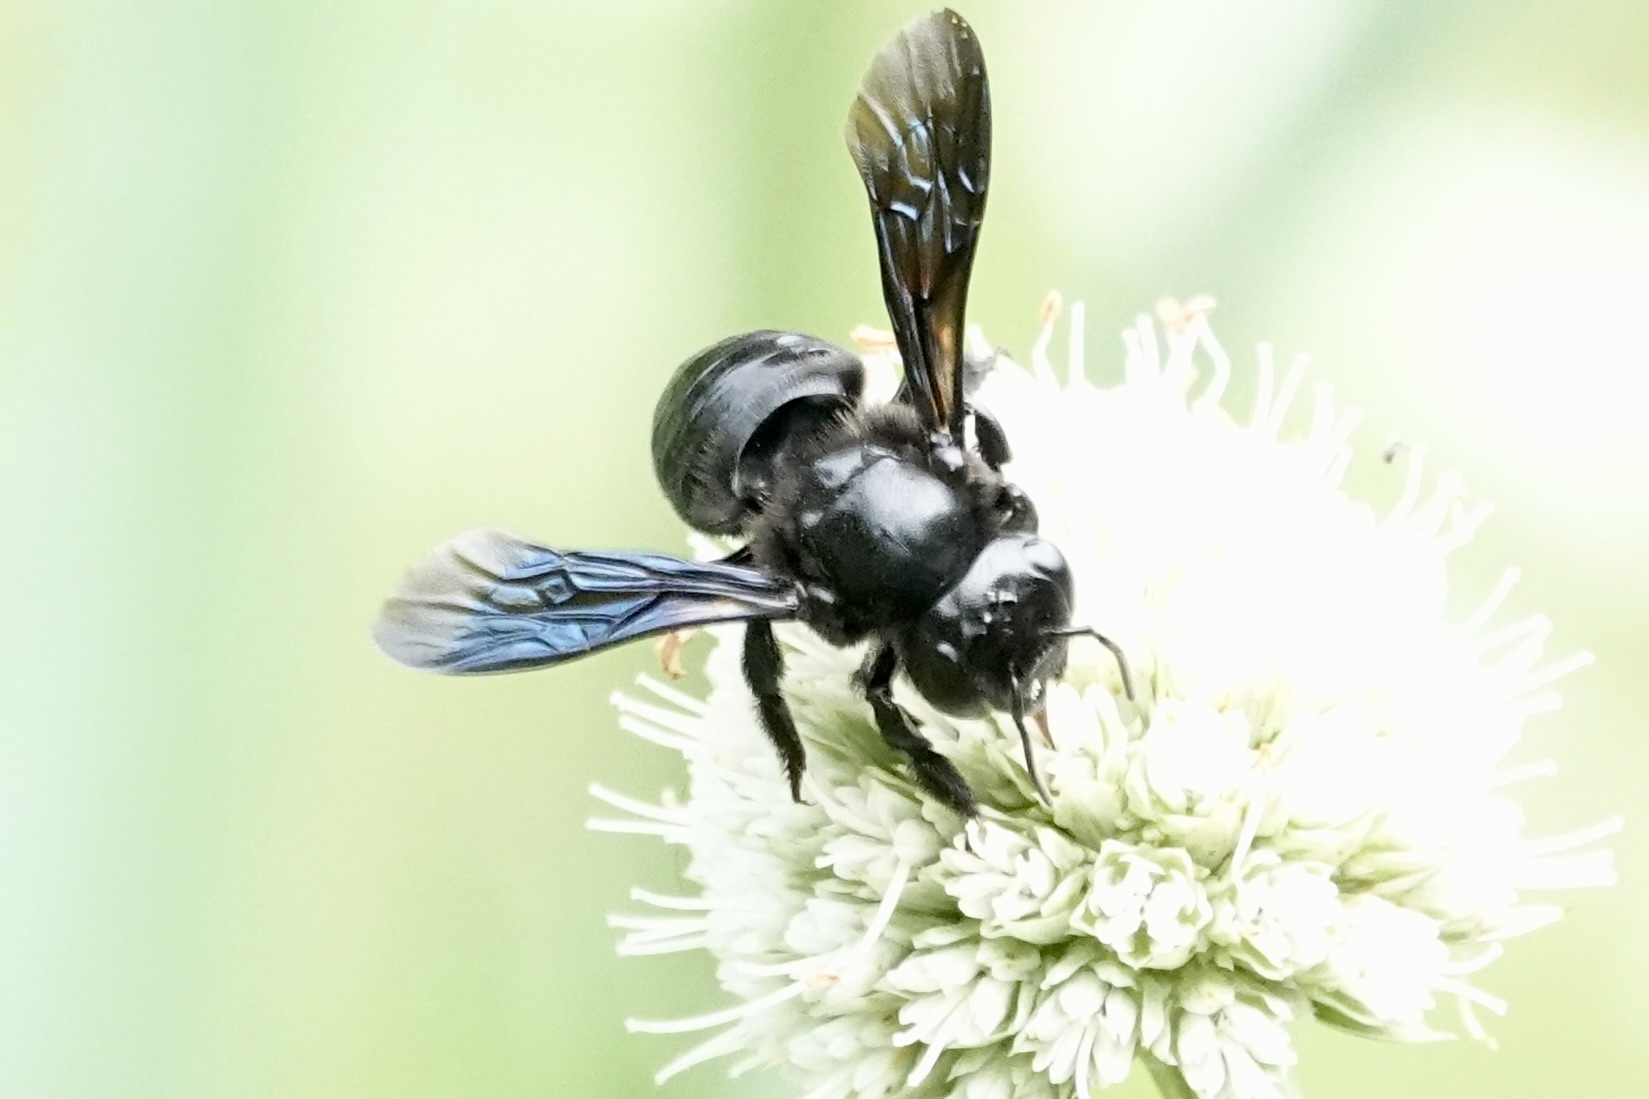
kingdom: Animalia
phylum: Arthropoda
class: Insecta
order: Hymenoptera
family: Megachilidae
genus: Megachile
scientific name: Megachile xylocopoides
